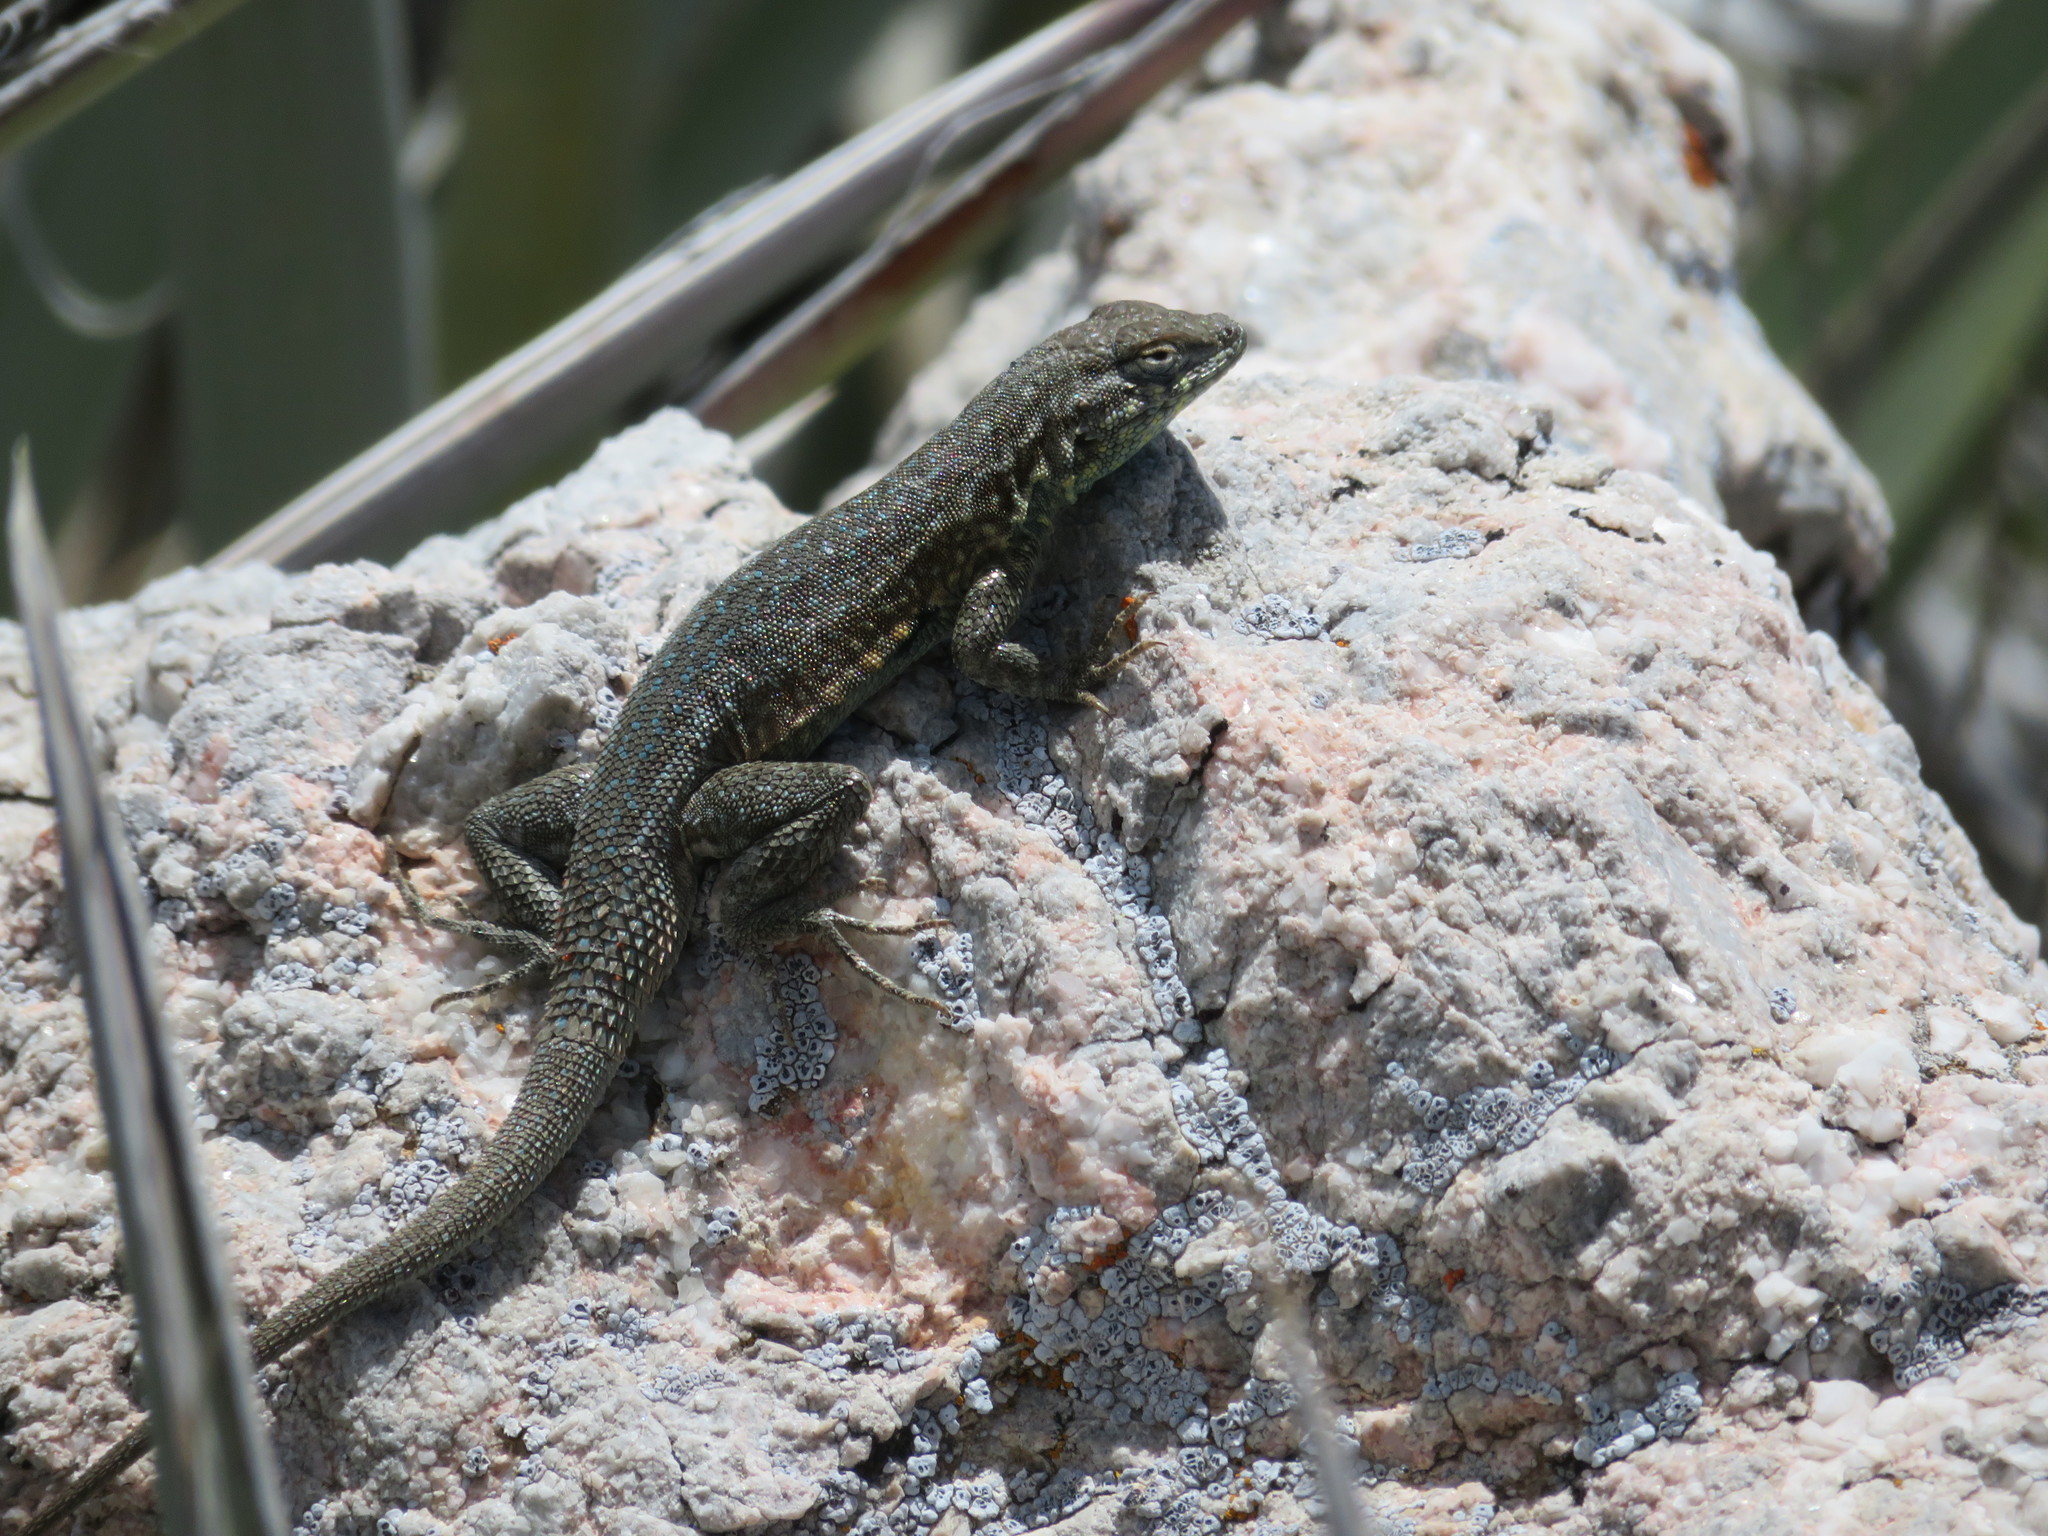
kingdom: Animalia
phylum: Chordata
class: Squamata
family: Phrynosomatidae
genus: Uta
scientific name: Uta stansburiana
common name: Side-blotched lizard
